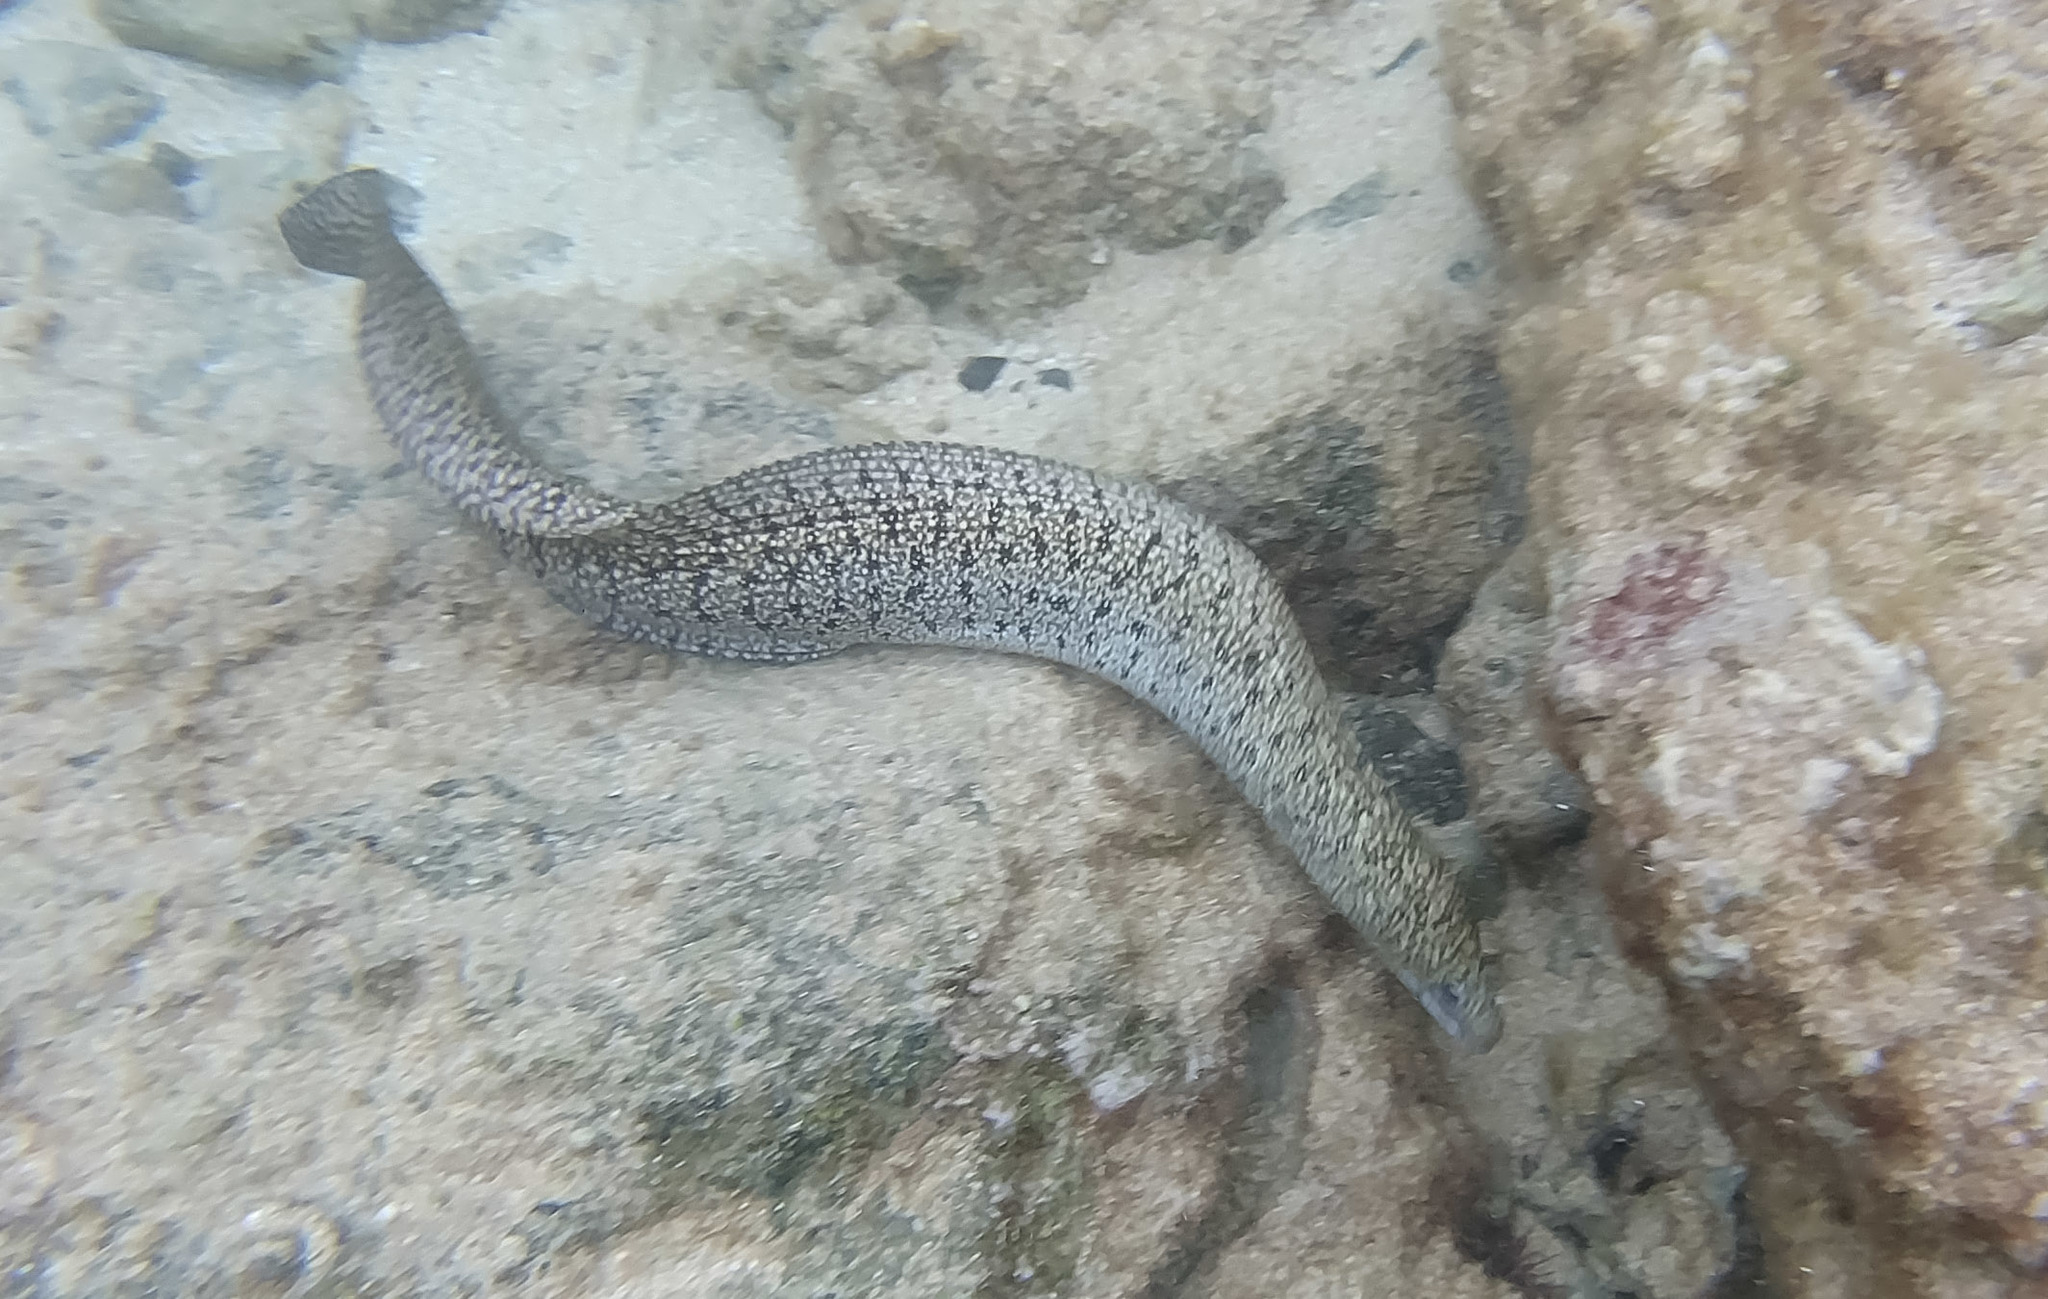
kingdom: Animalia
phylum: Chordata
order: Anguilliformes
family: Muraenidae
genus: Gymnothorax
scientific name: Gymnothorax eurostus
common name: Stout moray
